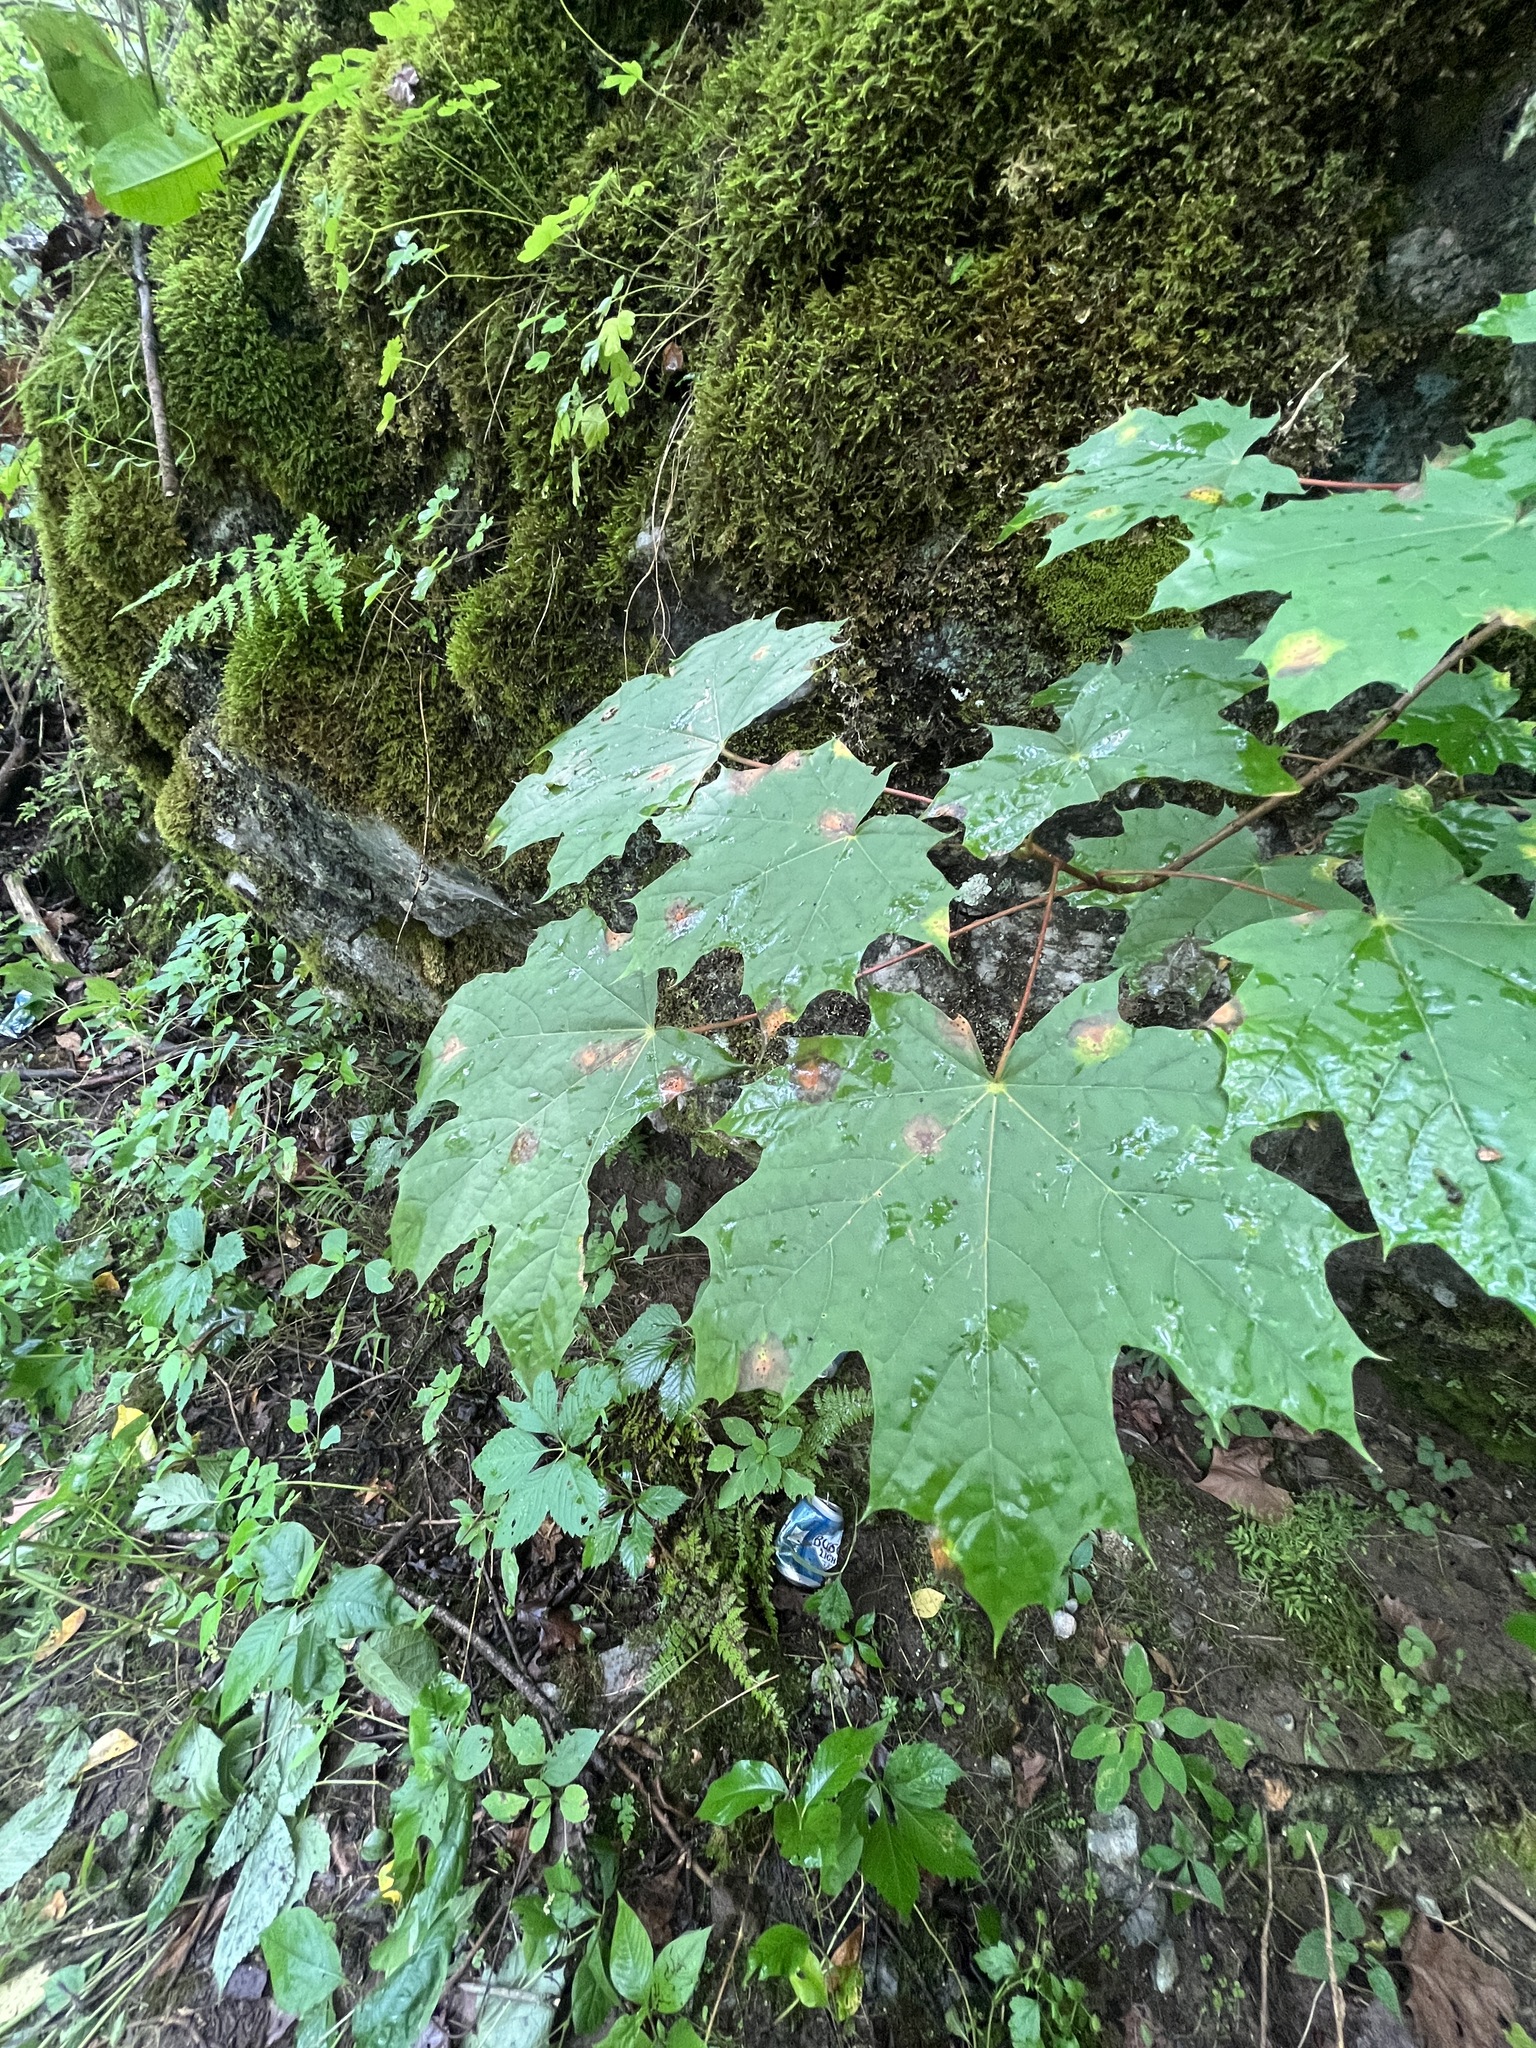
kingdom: Plantae
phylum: Tracheophyta
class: Magnoliopsida
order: Sapindales
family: Sapindaceae
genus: Acer
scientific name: Acer platanoides
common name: Norway maple
